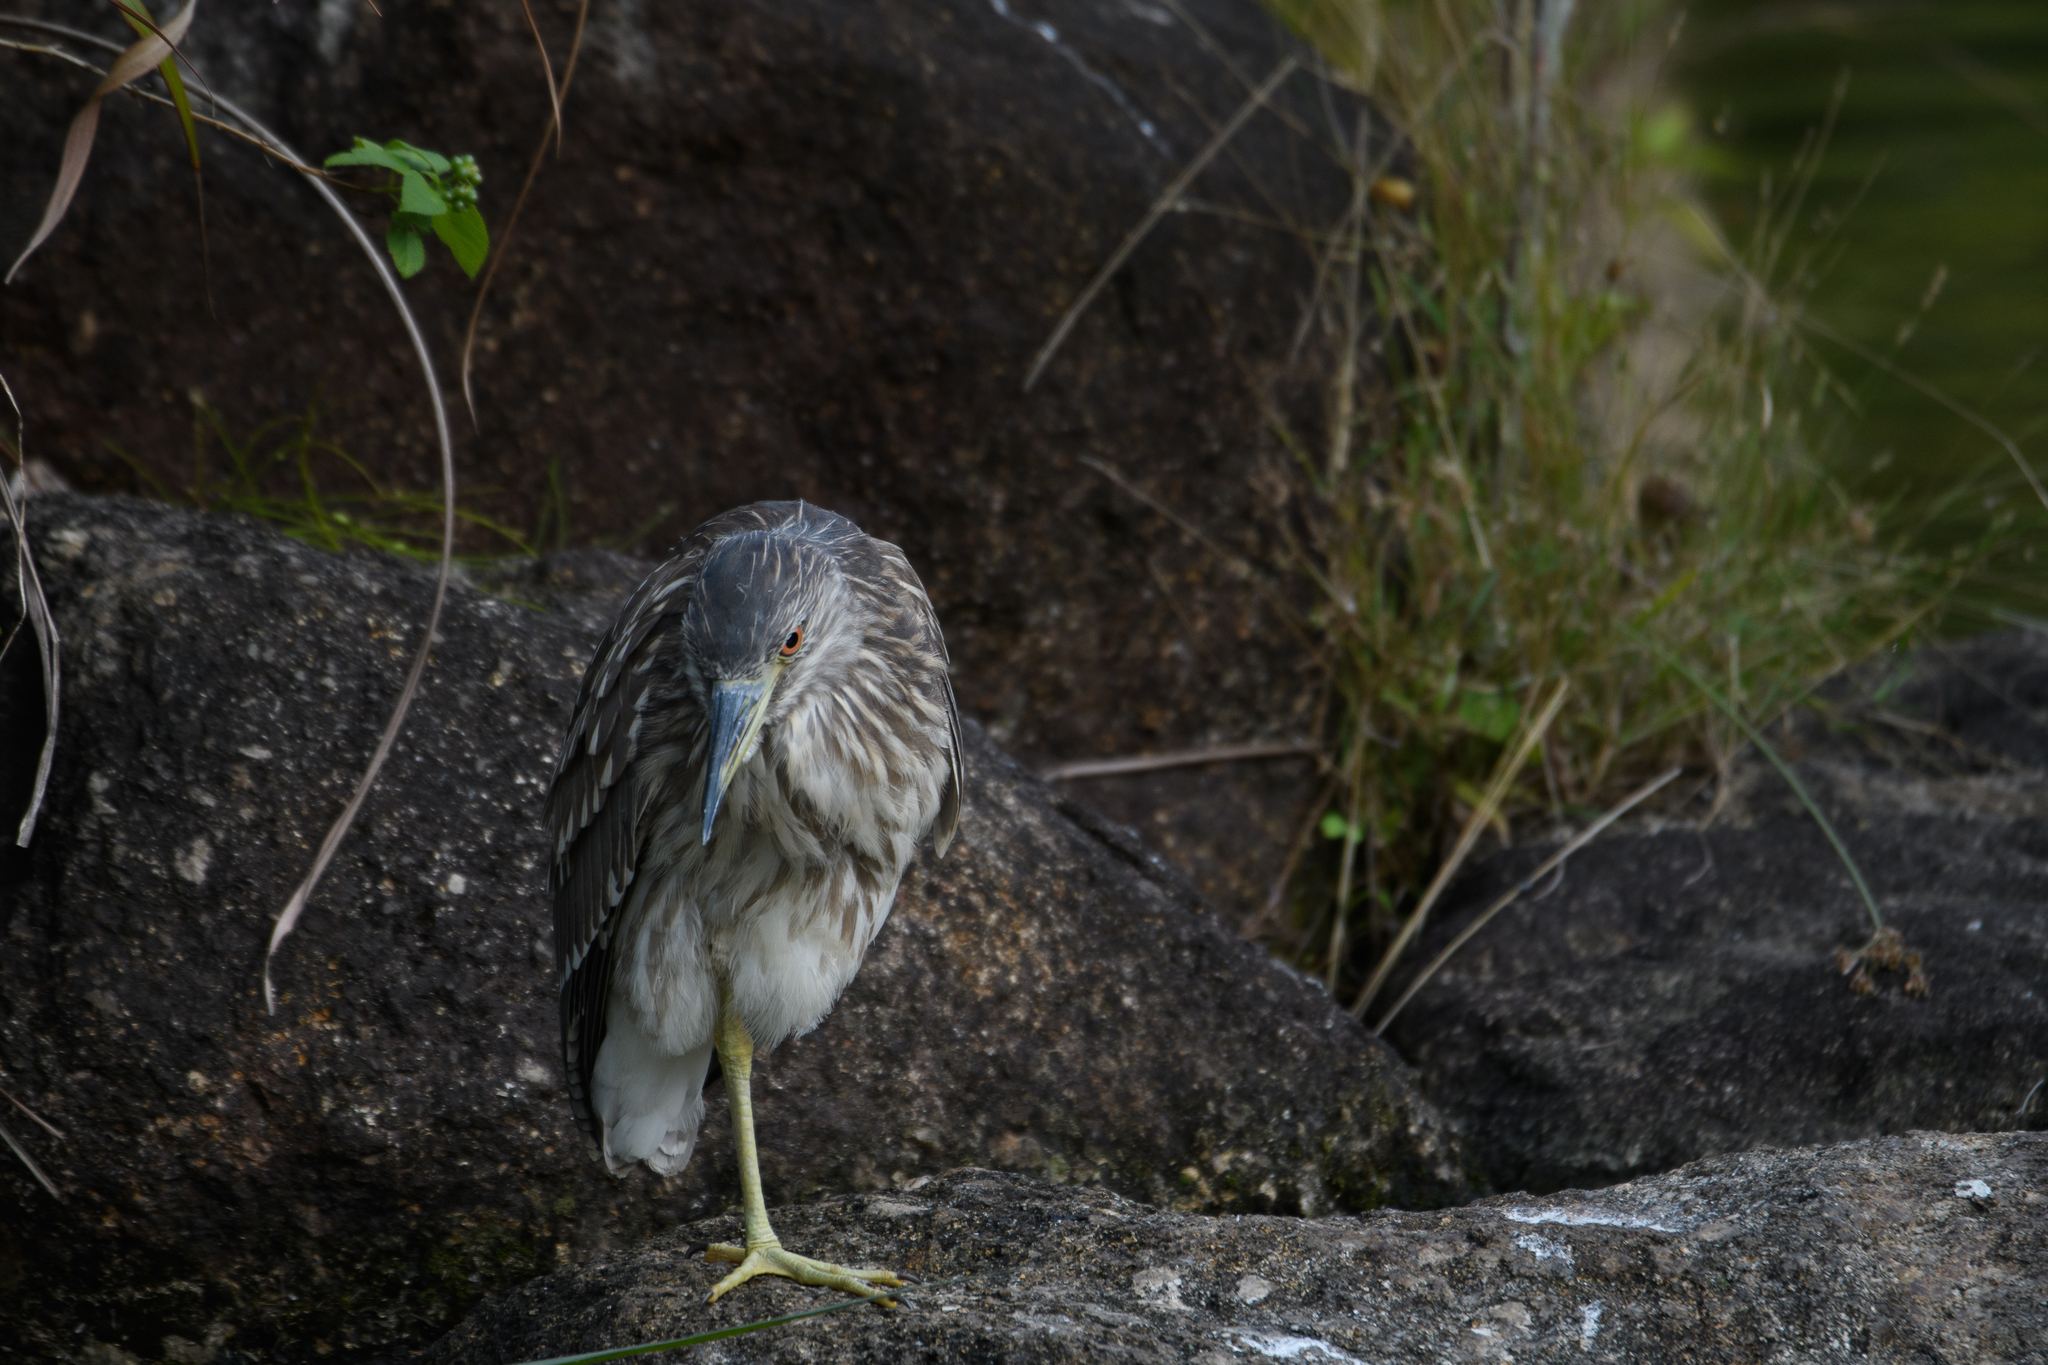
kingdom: Animalia
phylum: Chordata
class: Aves
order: Pelecaniformes
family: Ardeidae
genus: Nycticorax
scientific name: Nycticorax nycticorax
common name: Black-crowned night heron
